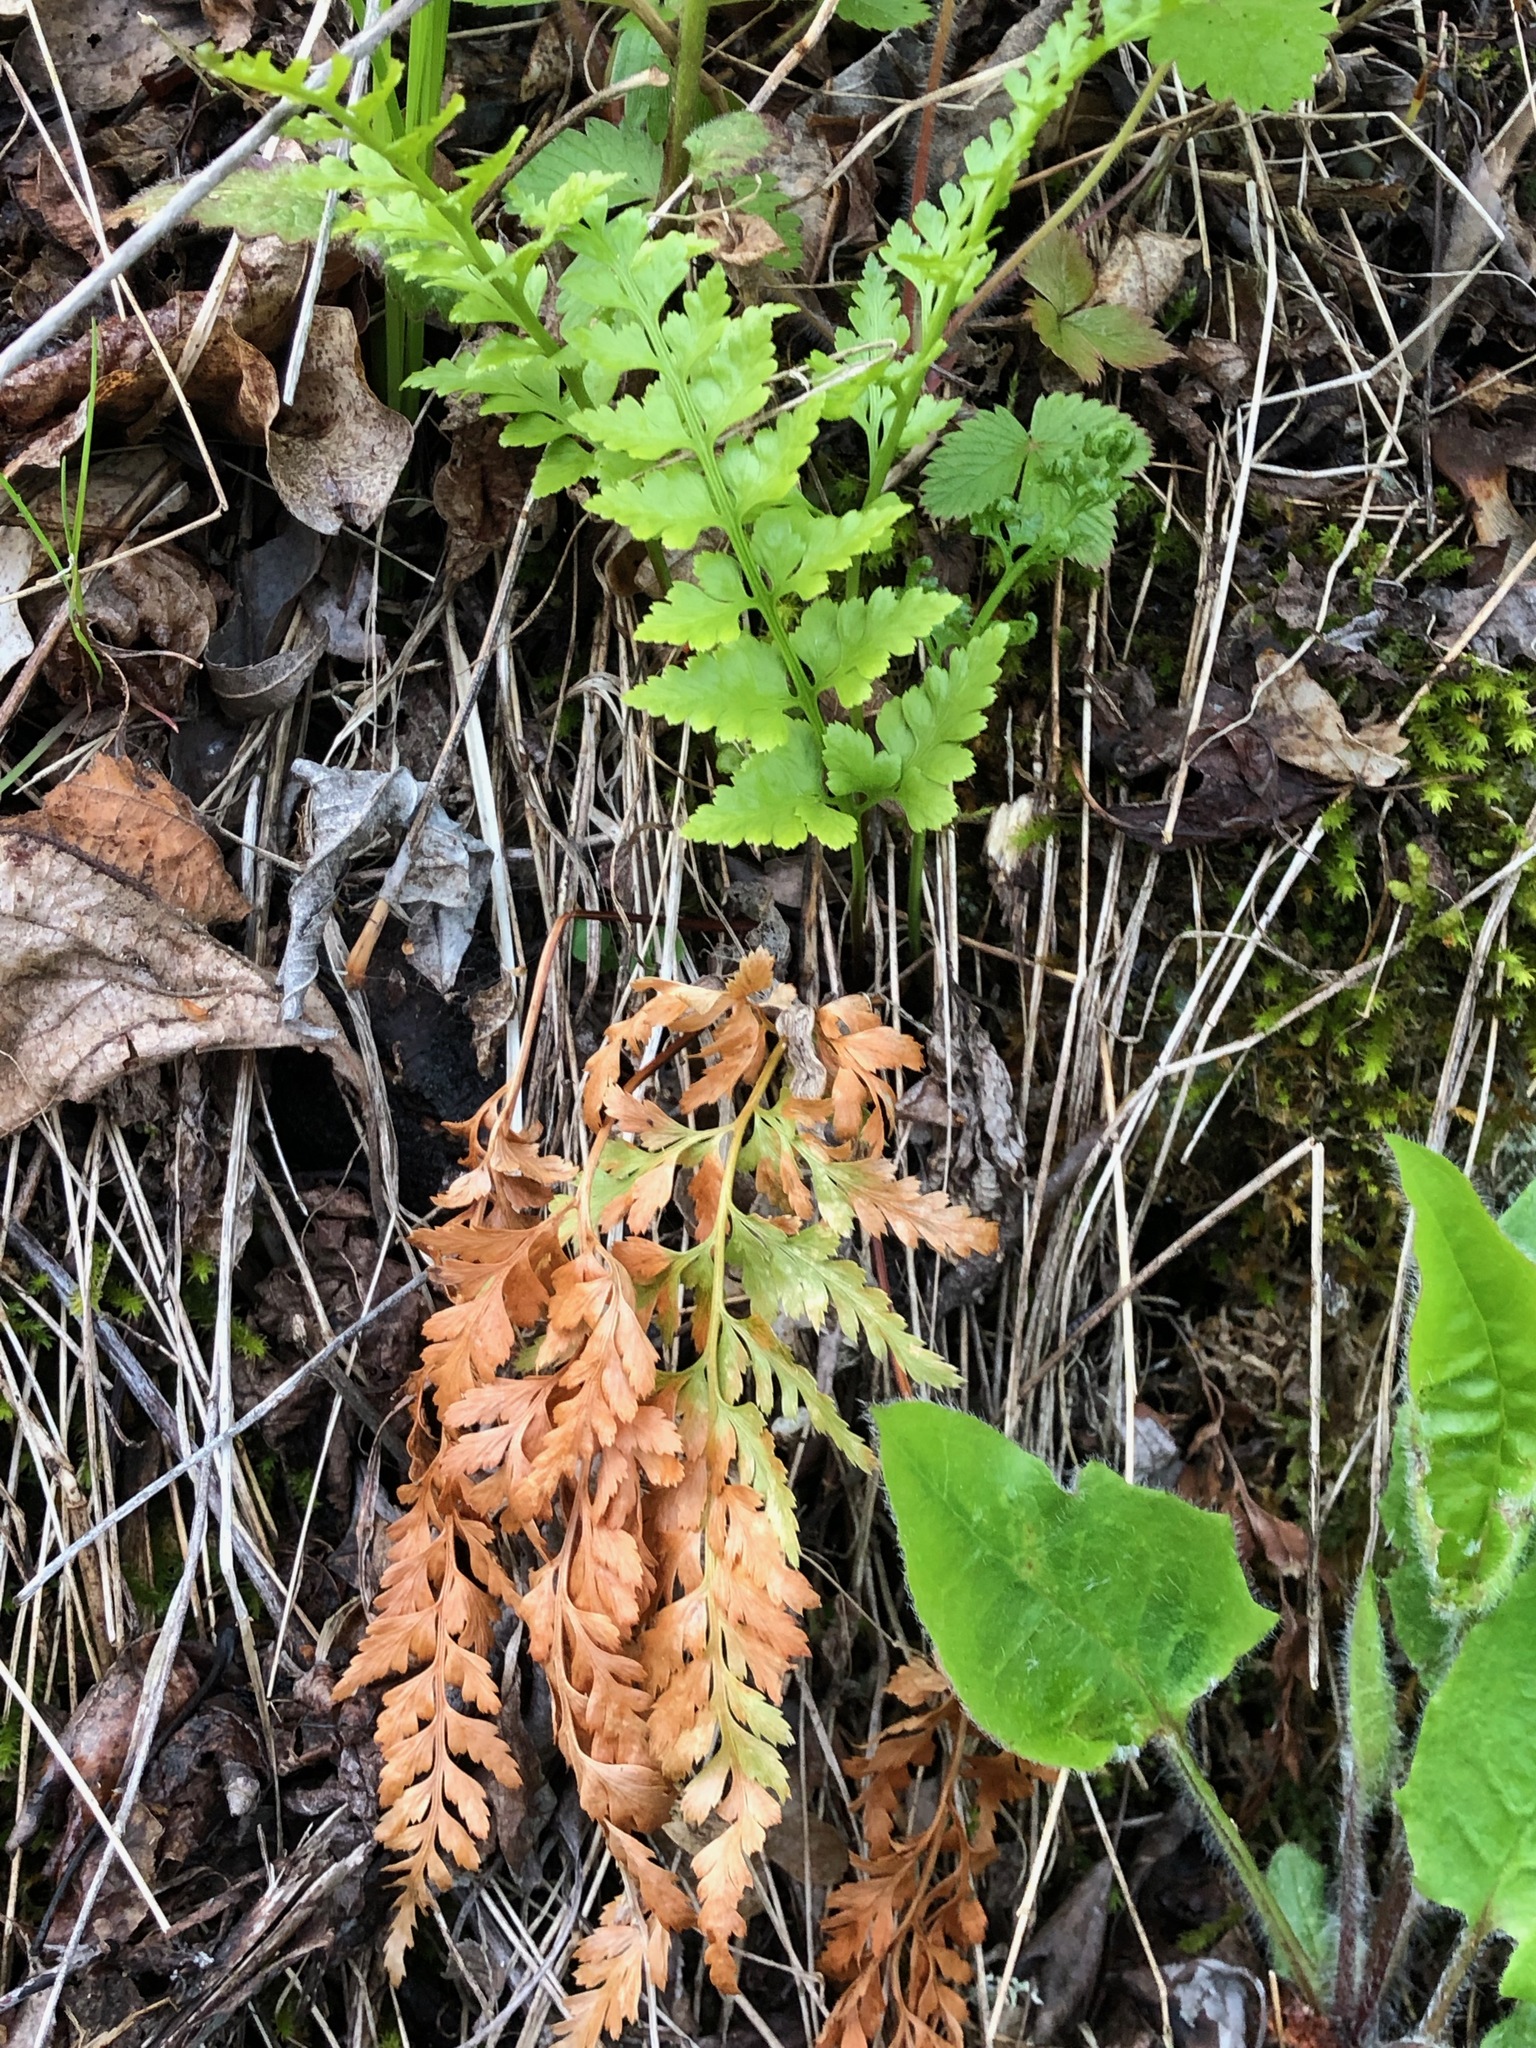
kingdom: Plantae
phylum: Tracheophyta
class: Polypodiopsida
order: Polypodiales
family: Aspleniaceae
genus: Asplenium
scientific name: Asplenium adiantum-nigrum
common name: Black spleenwort
